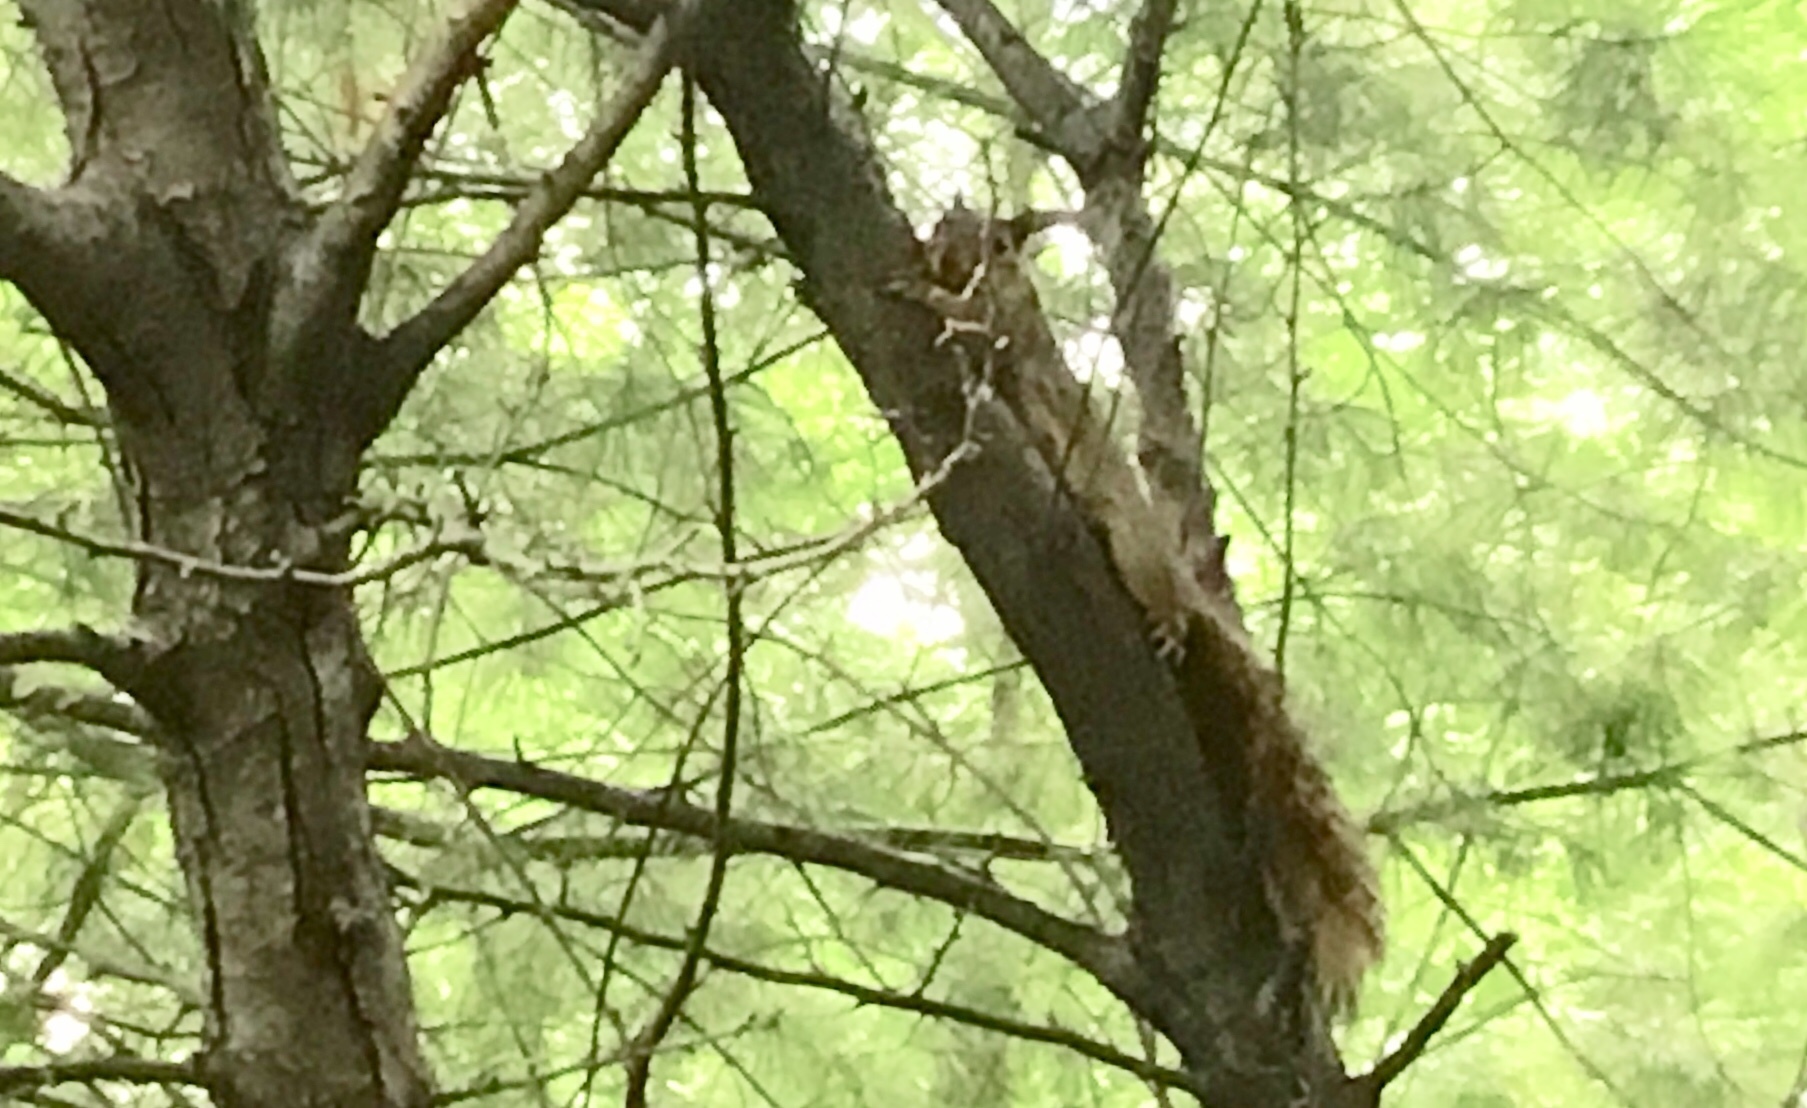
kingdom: Animalia
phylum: Chordata
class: Mammalia
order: Rodentia
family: Sciuridae
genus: Sciurus
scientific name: Sciurus niger
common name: Fox squirrel
